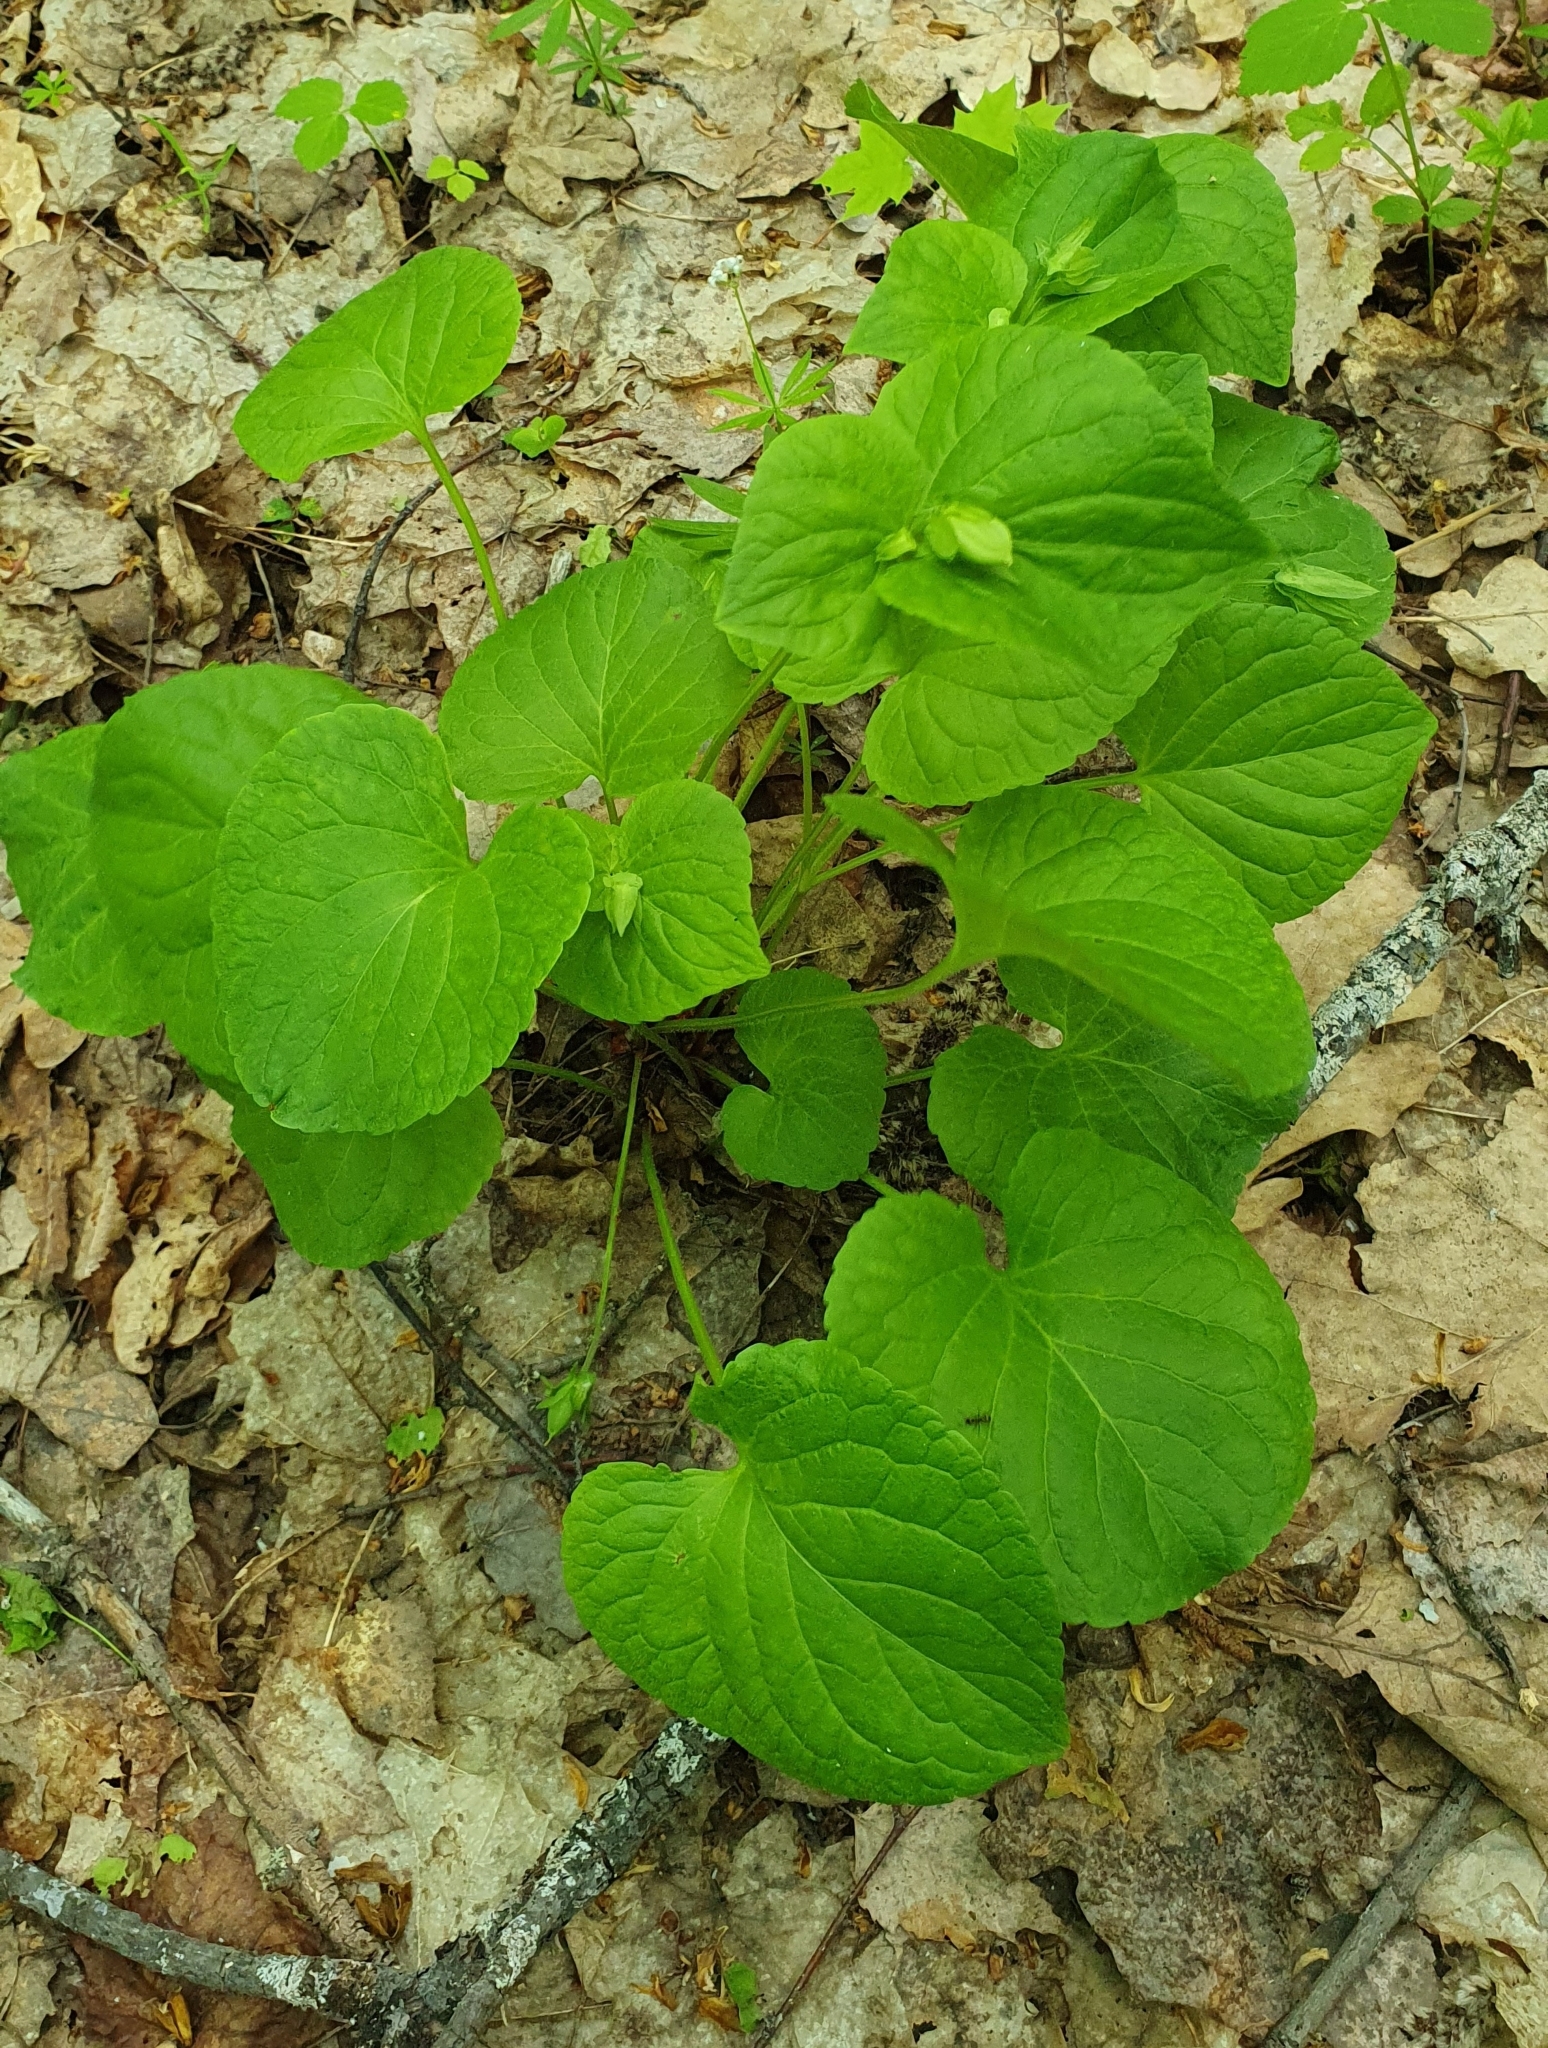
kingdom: Plantae
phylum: Tracheophyta
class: Magnoliopsida
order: Malpighiales
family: Violaceae
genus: Viola
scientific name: Viola mirabilis
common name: Wonder violet
